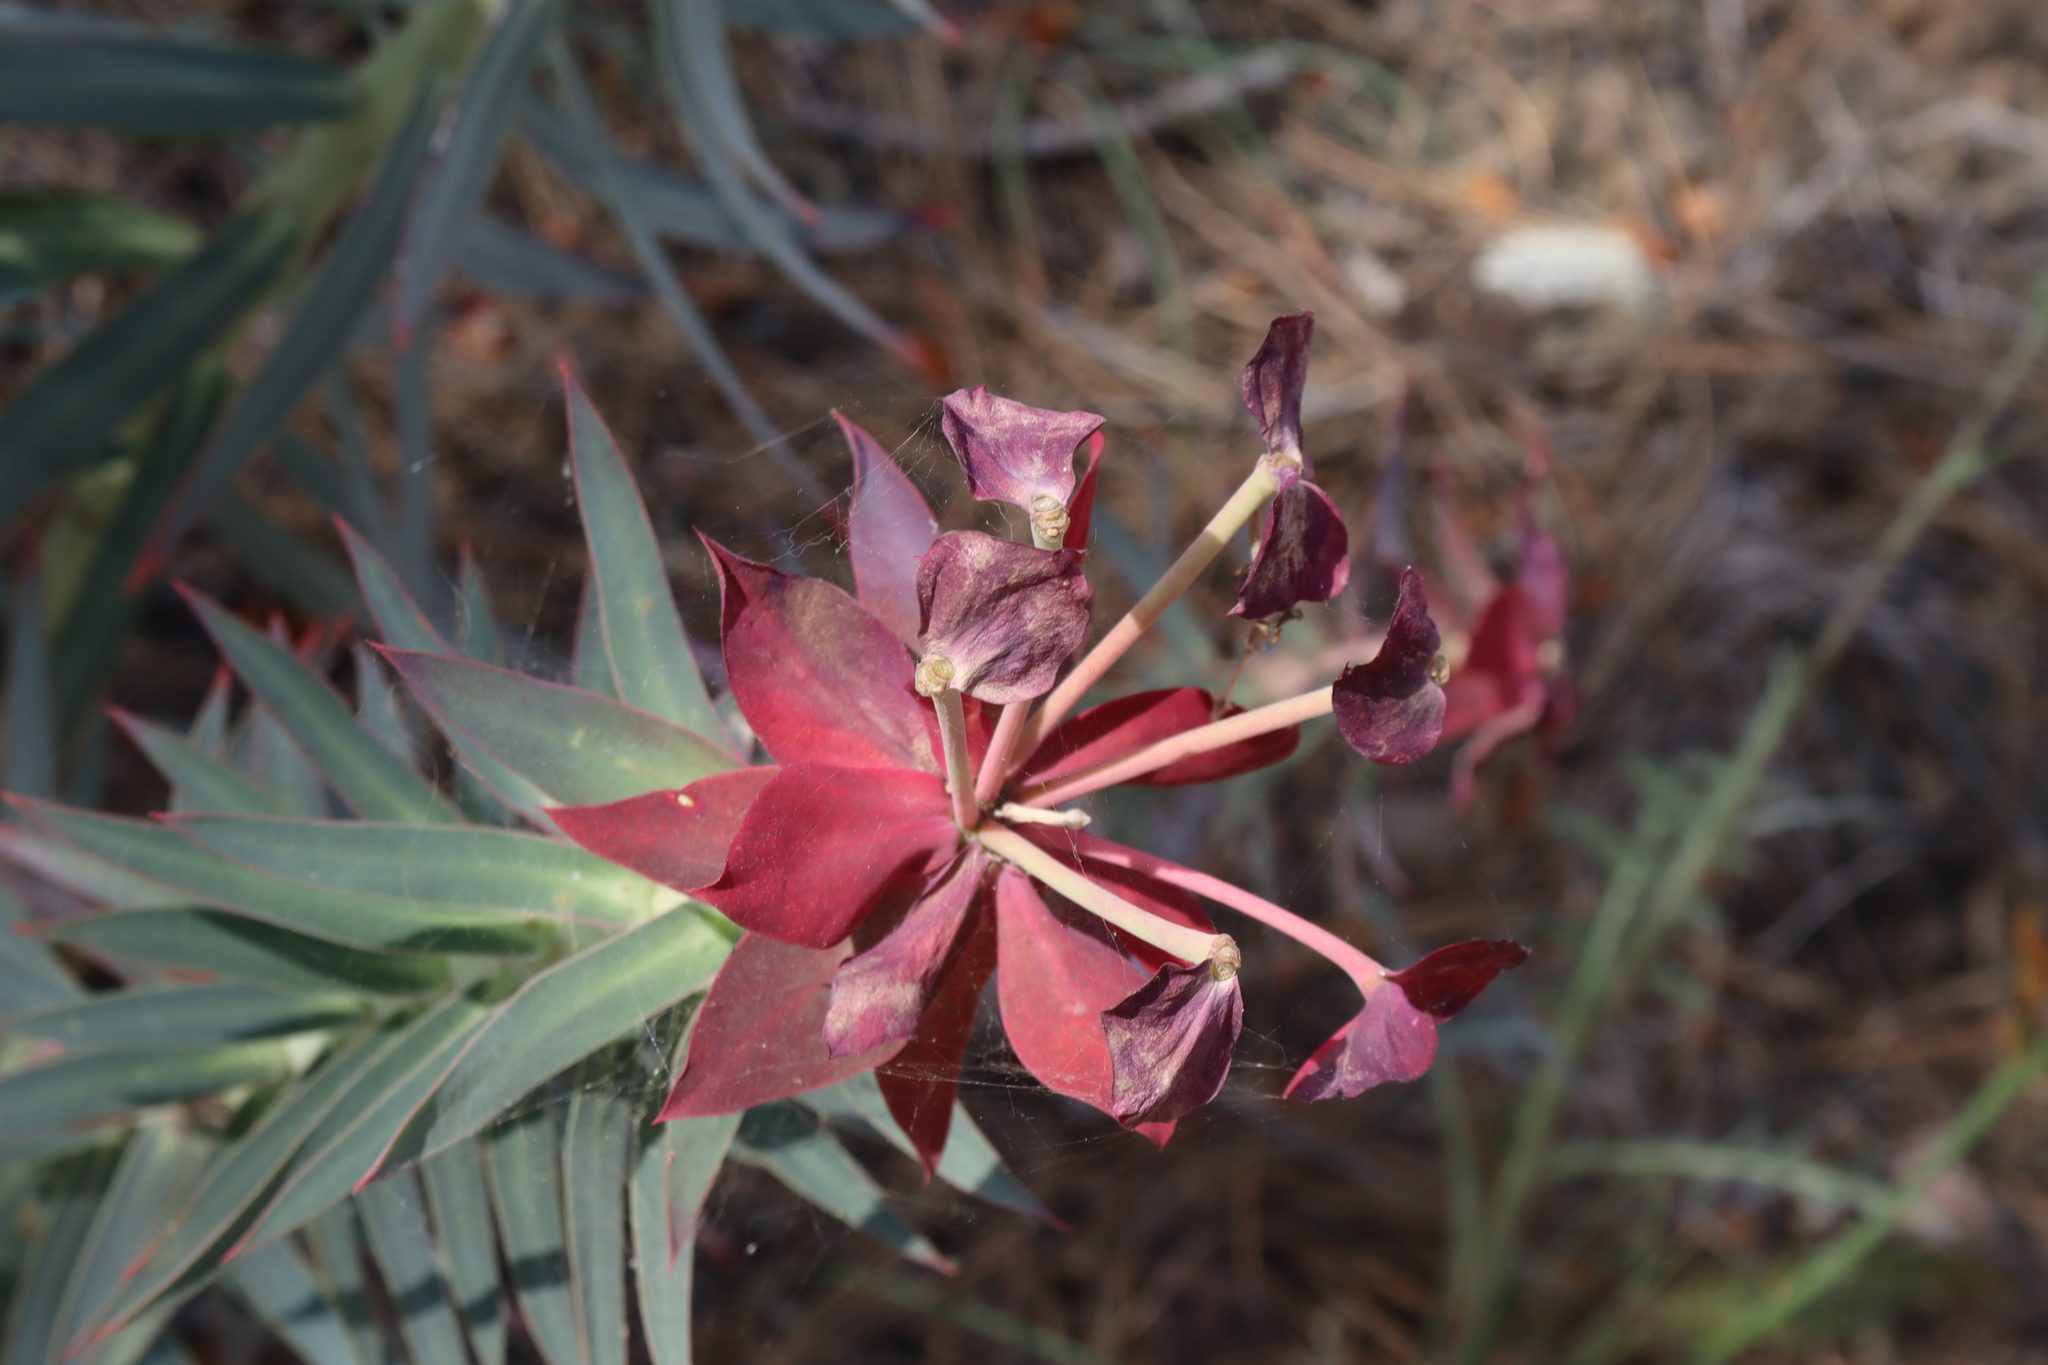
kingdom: Plantae
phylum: Tracheophyta
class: Magnoliopsida
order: Malpighiales
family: Euphorbiaceae
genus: Euphorbia
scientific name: Euphorbia rigida
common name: Upright myrtle spurge
